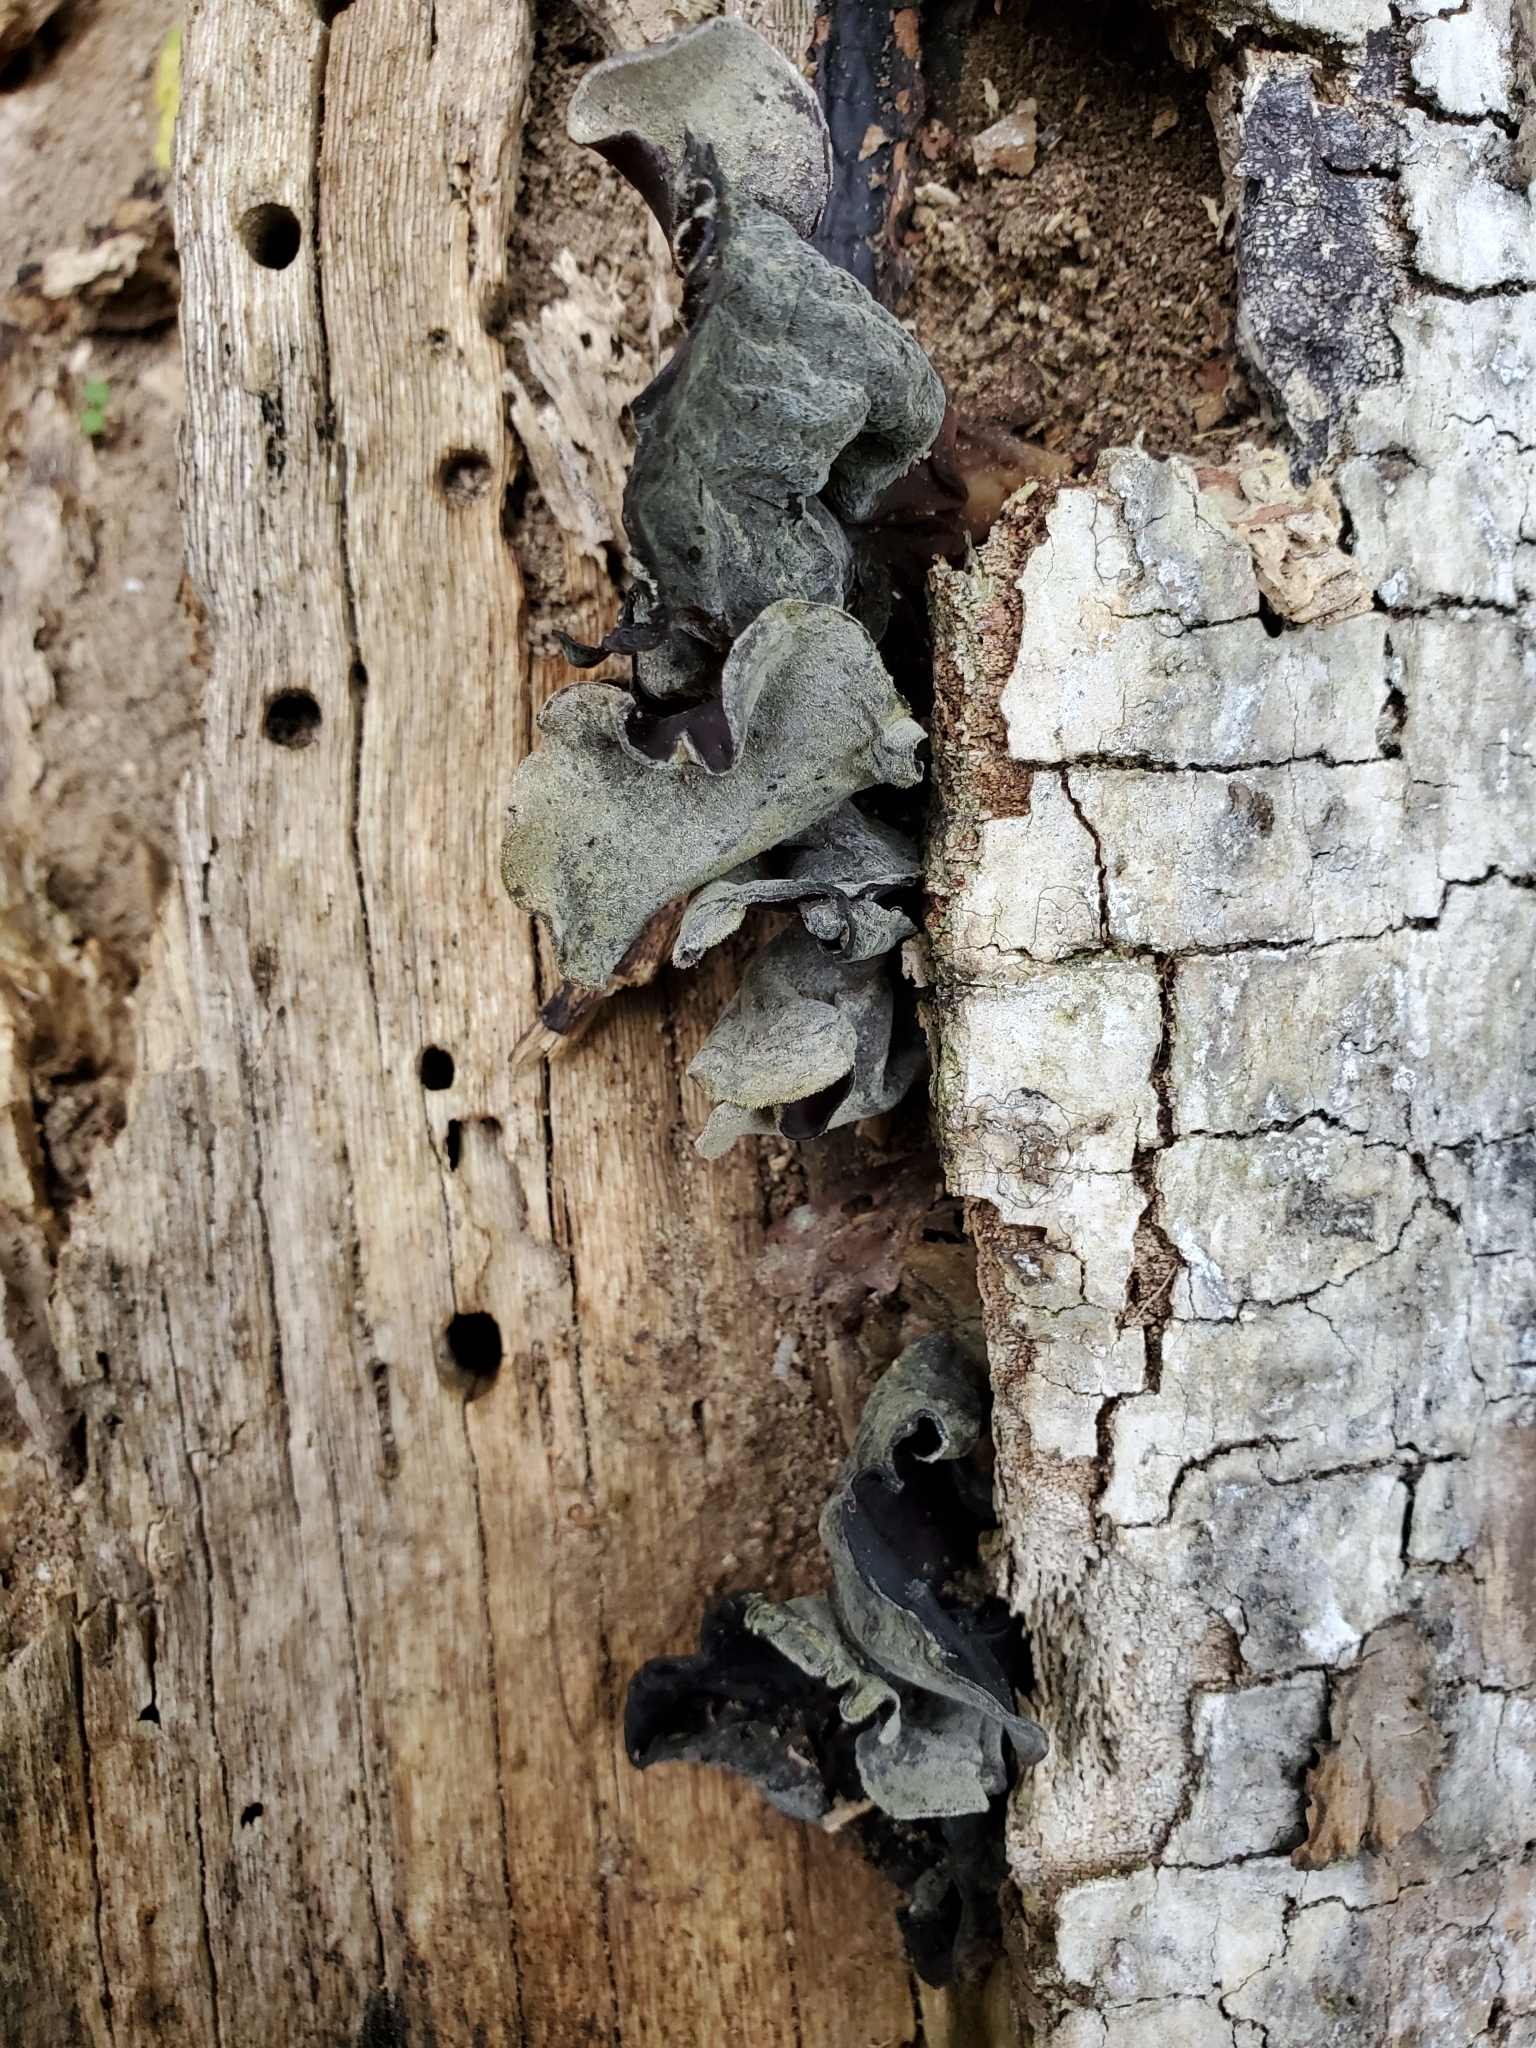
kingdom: Fungi
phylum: Basidiomycota
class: Agaricomycetes
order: Auriculariales
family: Auriculariaceae
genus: Auricularia
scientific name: Auricularia cornea
